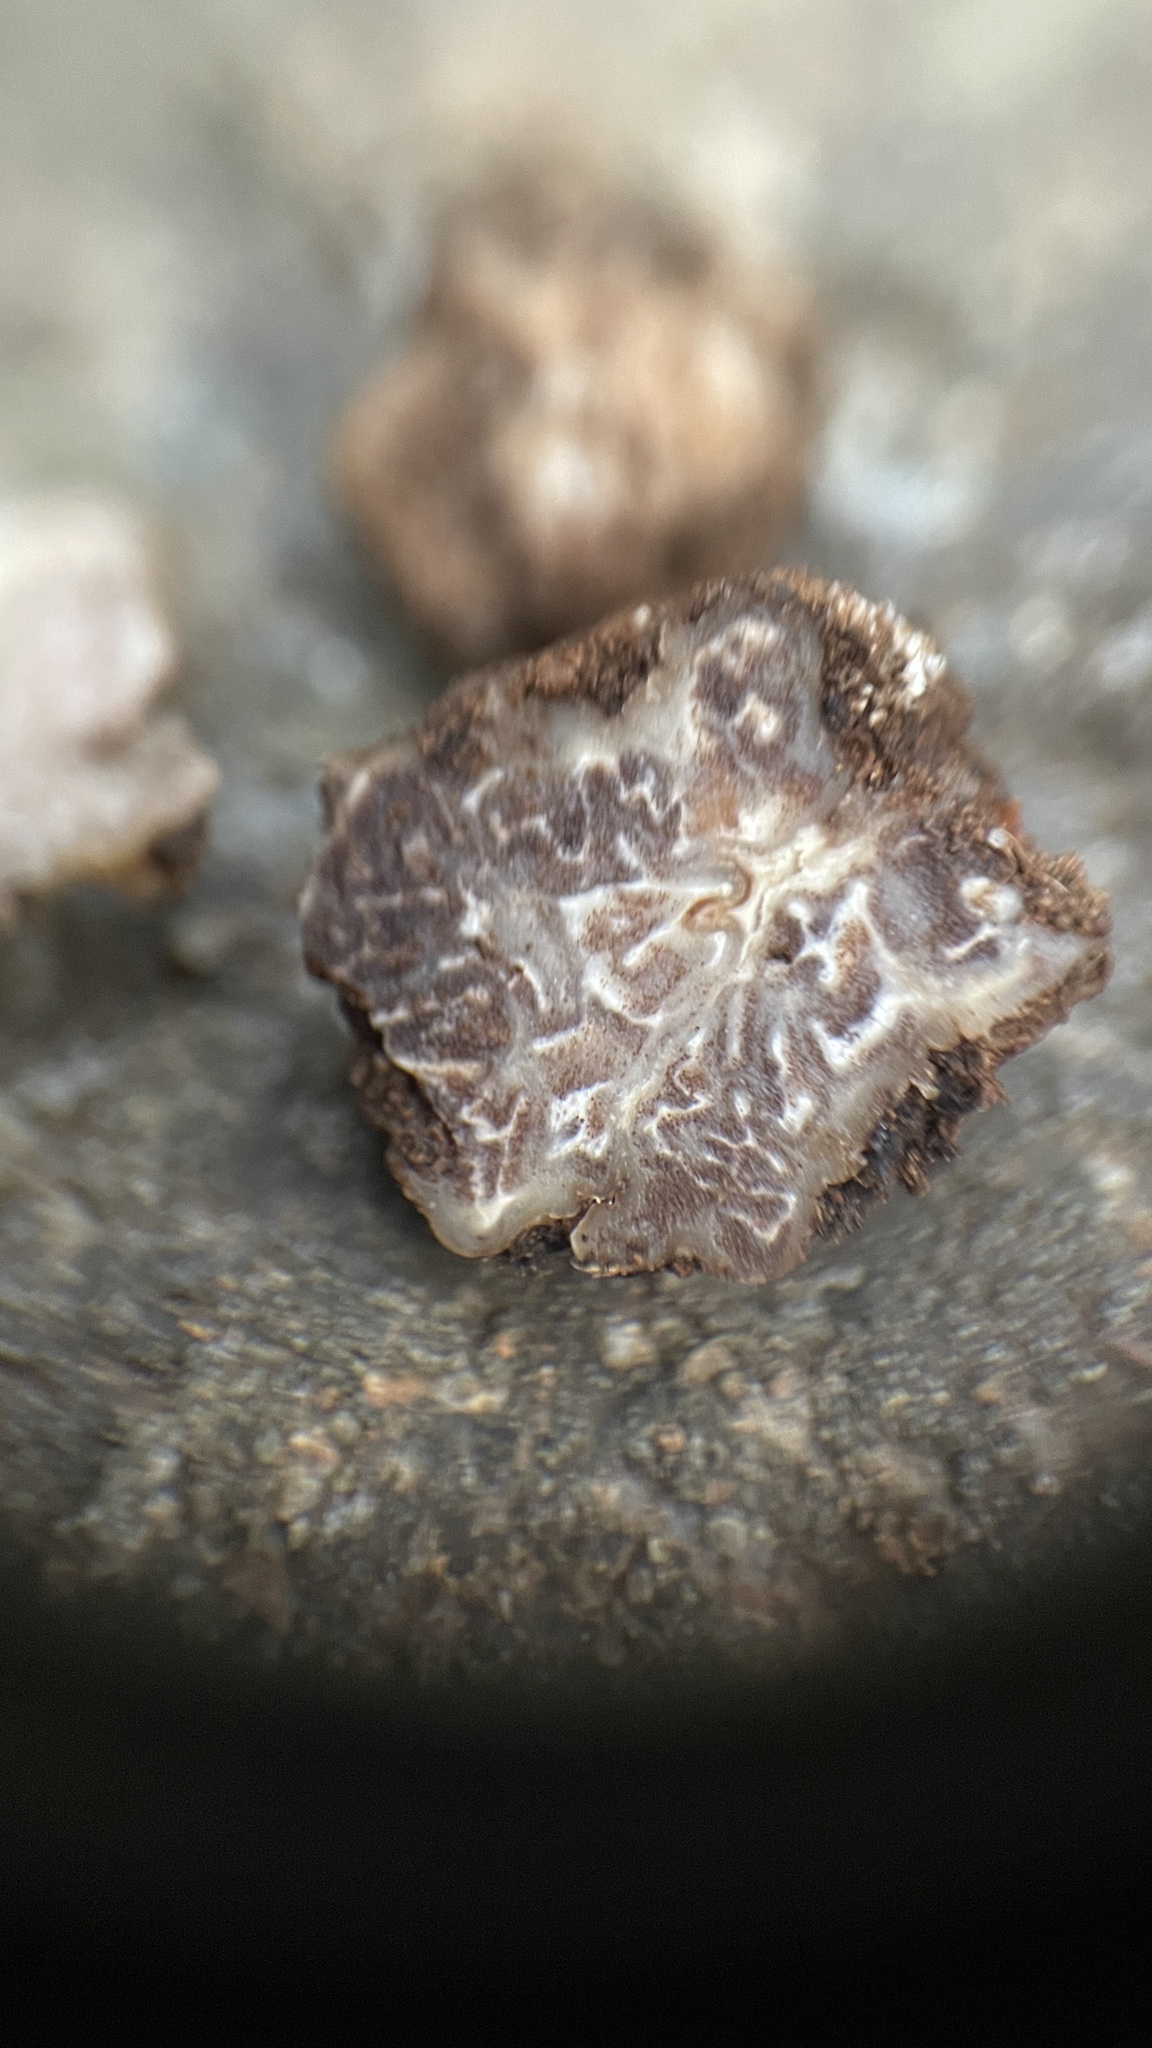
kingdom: Fungi
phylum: Ascomycota
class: Pezizomycetes
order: Pezizales
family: Tuberaceae
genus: Tuber
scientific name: Tuber anniae
